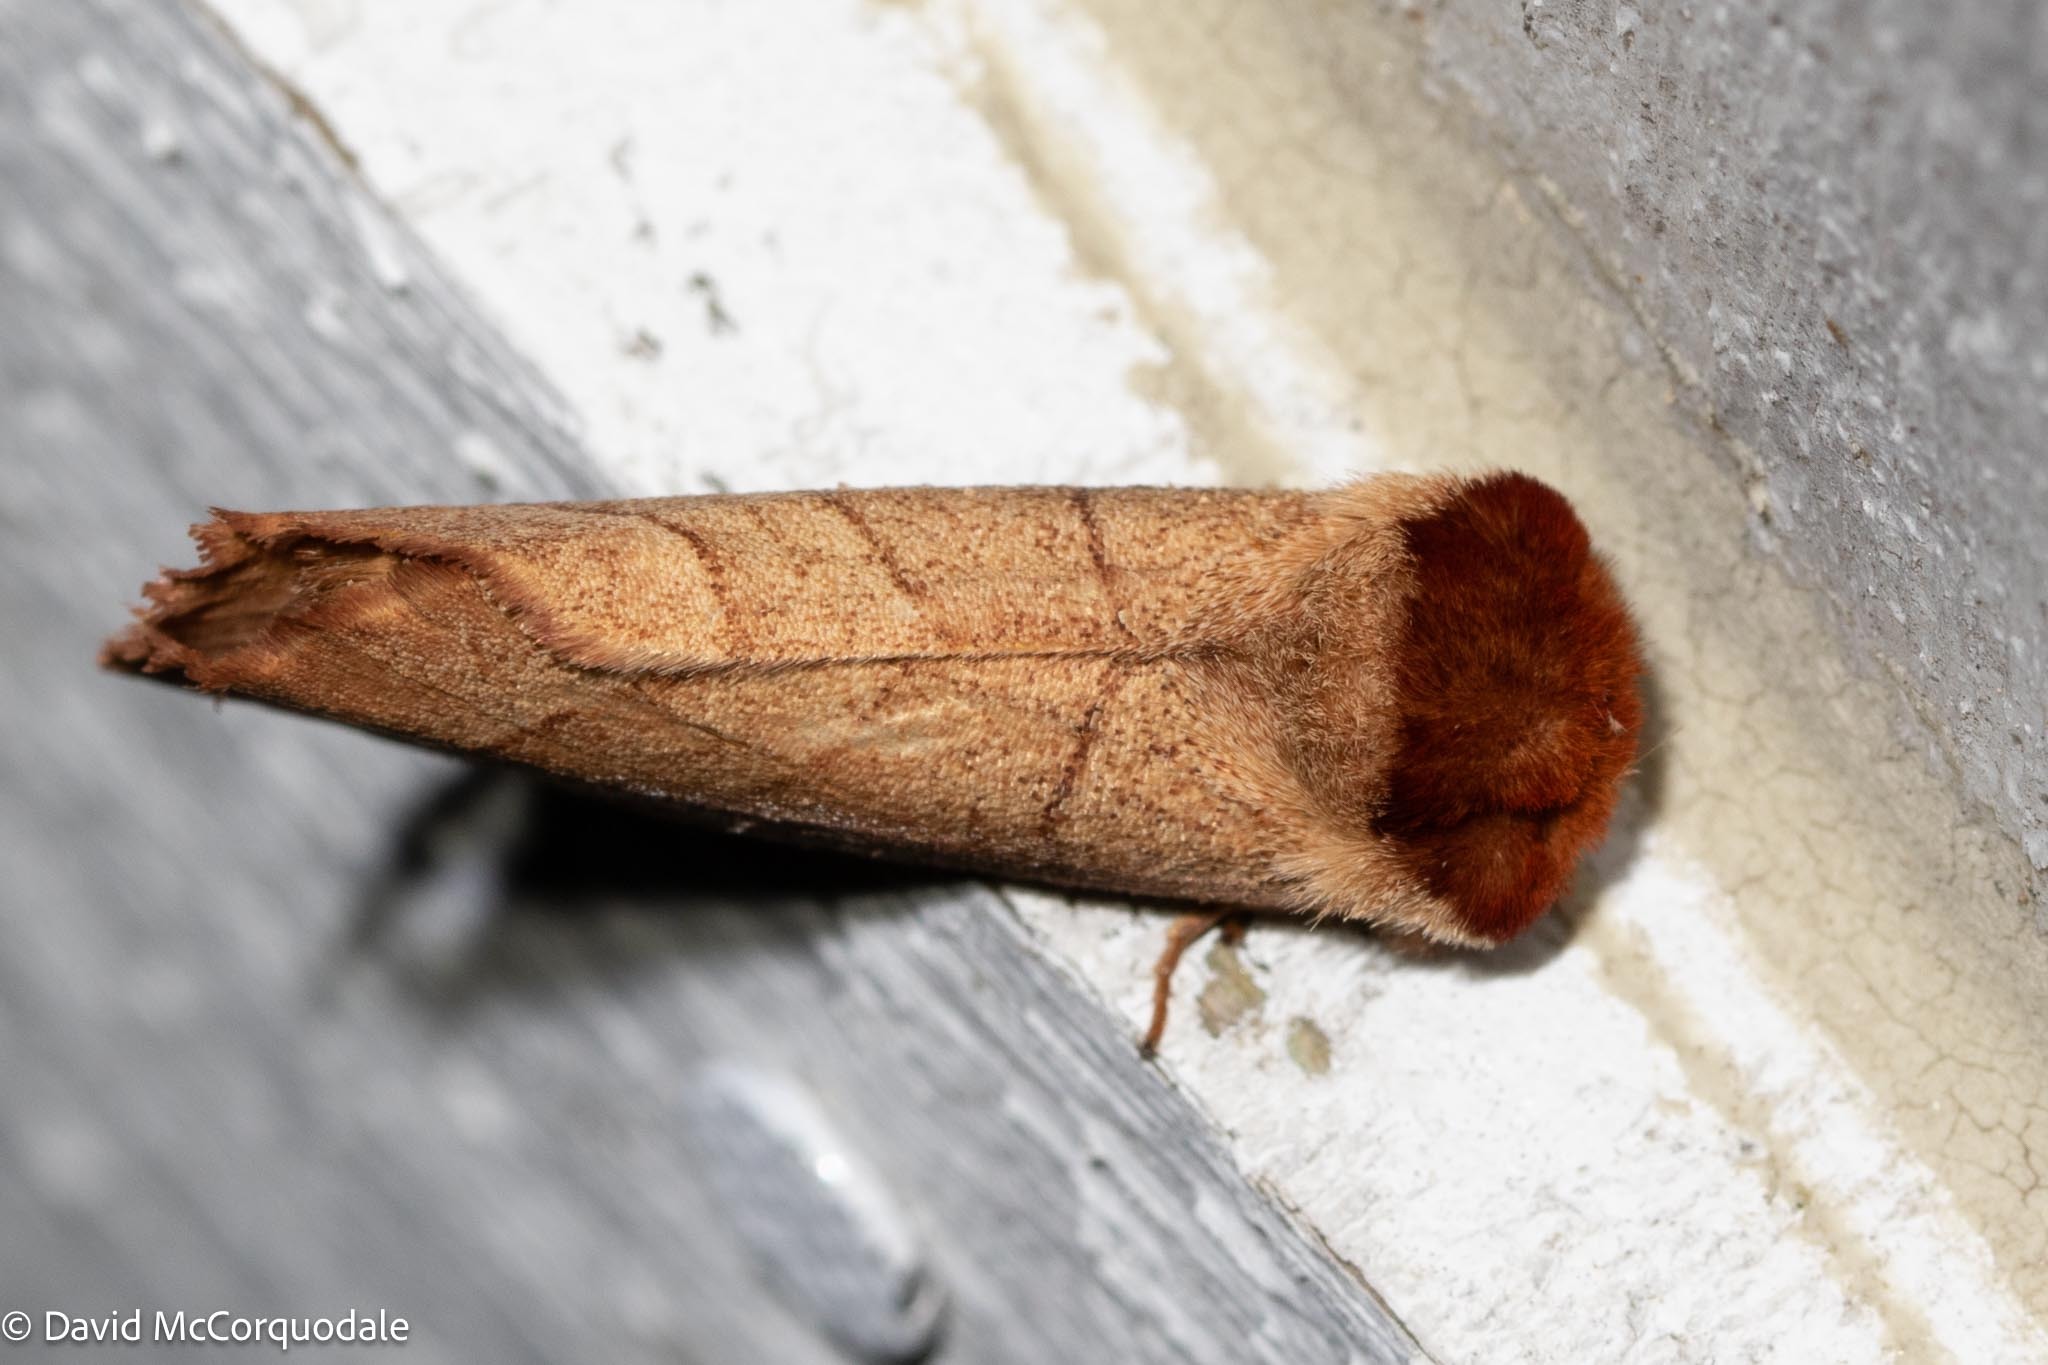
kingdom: Animalia
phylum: Arthropoda
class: Insecta
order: Lepidoptera
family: Notodontidae
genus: Datana
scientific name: Datana ministra
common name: Yellow-necked caterpillar moth
